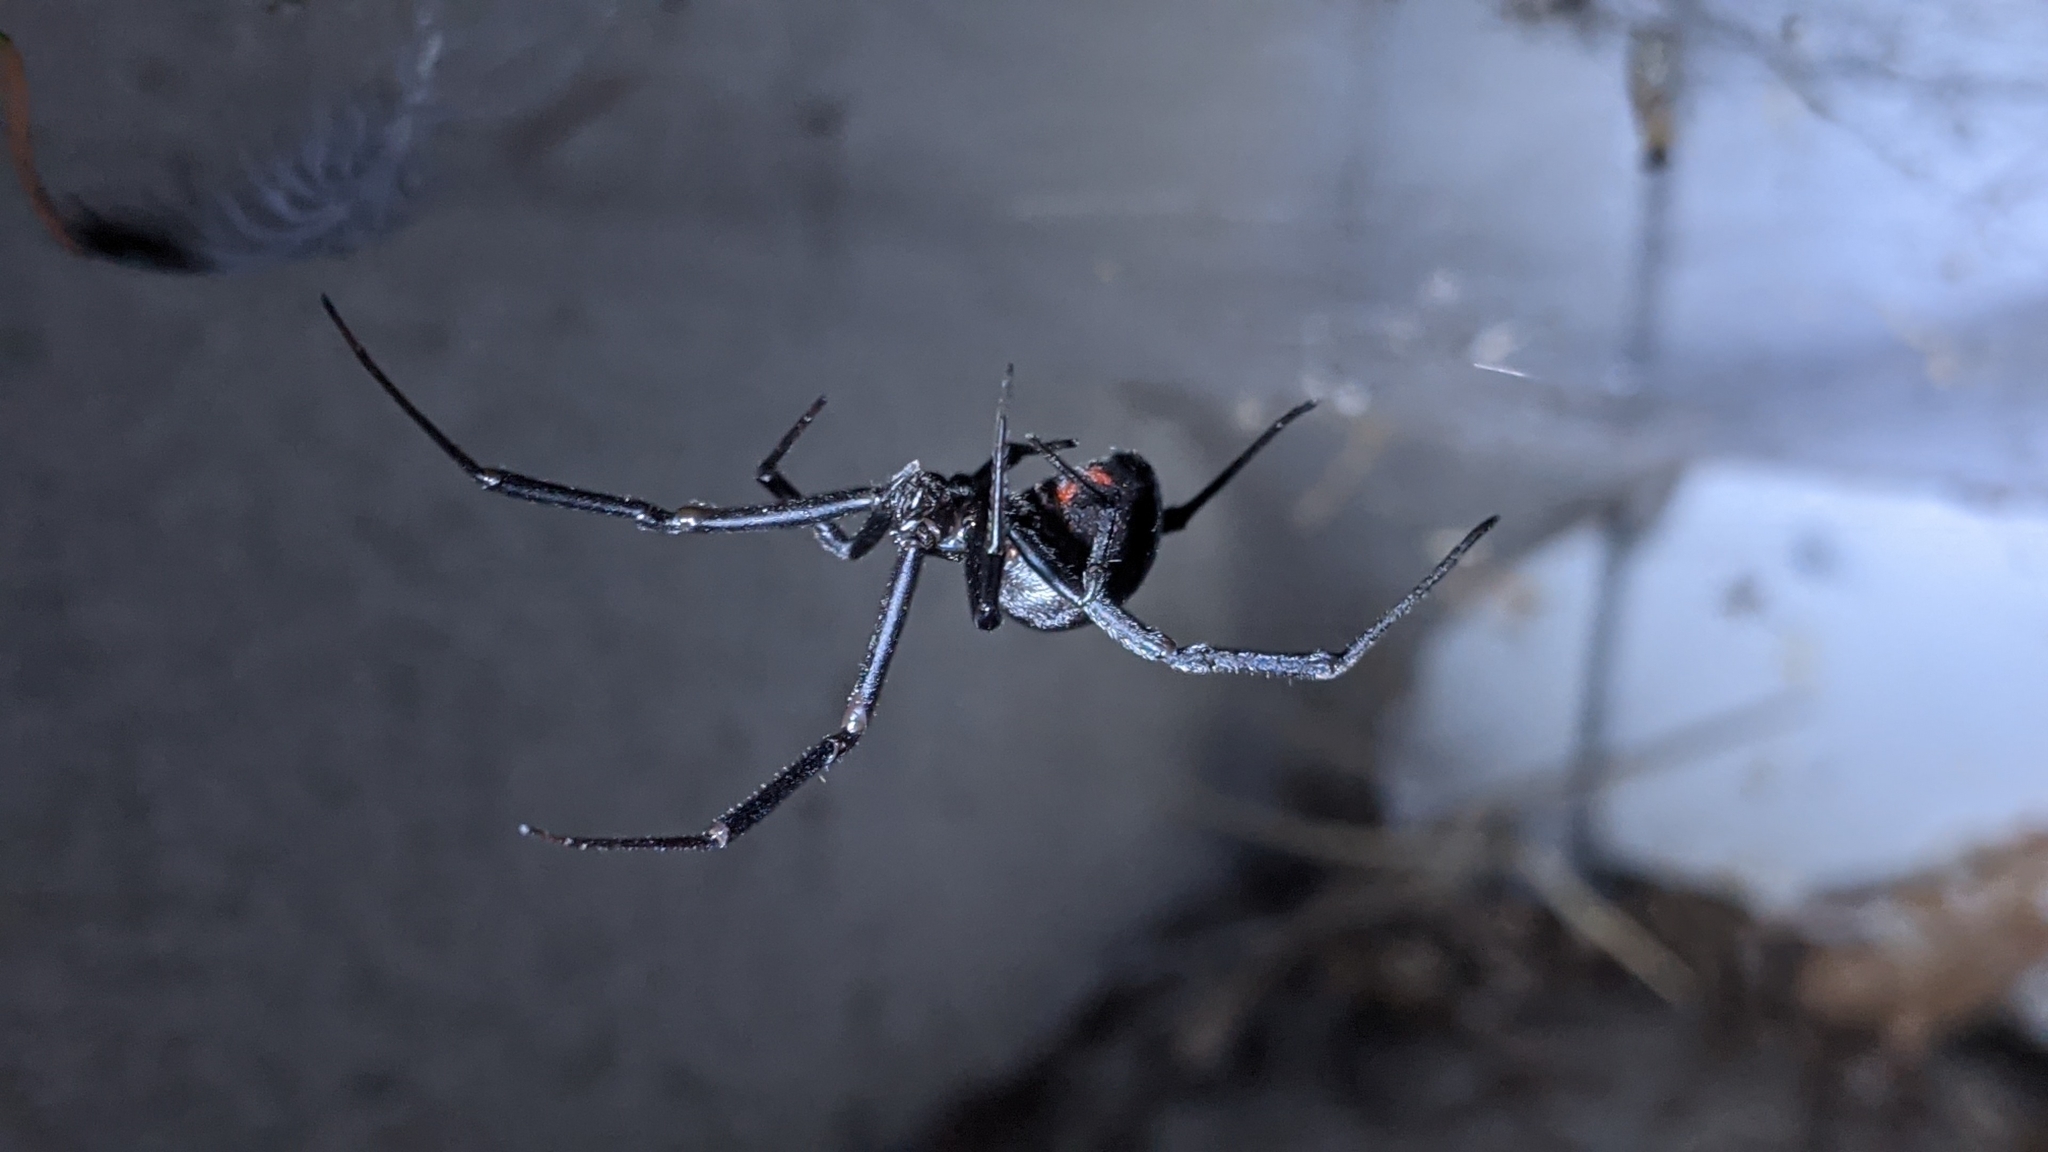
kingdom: Animalia
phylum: Arthropoda
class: Arachnida
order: Araneae
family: Theridiidae
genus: Latrodectus
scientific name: Latrodectus hesperus
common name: Western black widow
